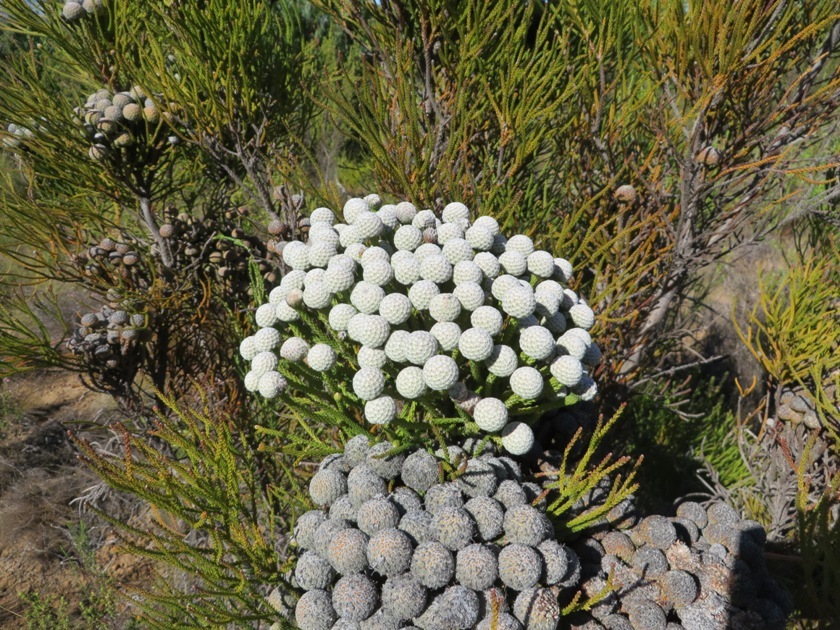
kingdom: Plantae
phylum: Tracheophyta
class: Magnoliopsida
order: Bruniales
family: Bruniaceae
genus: Brunia
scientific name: Brunia noduliflora
